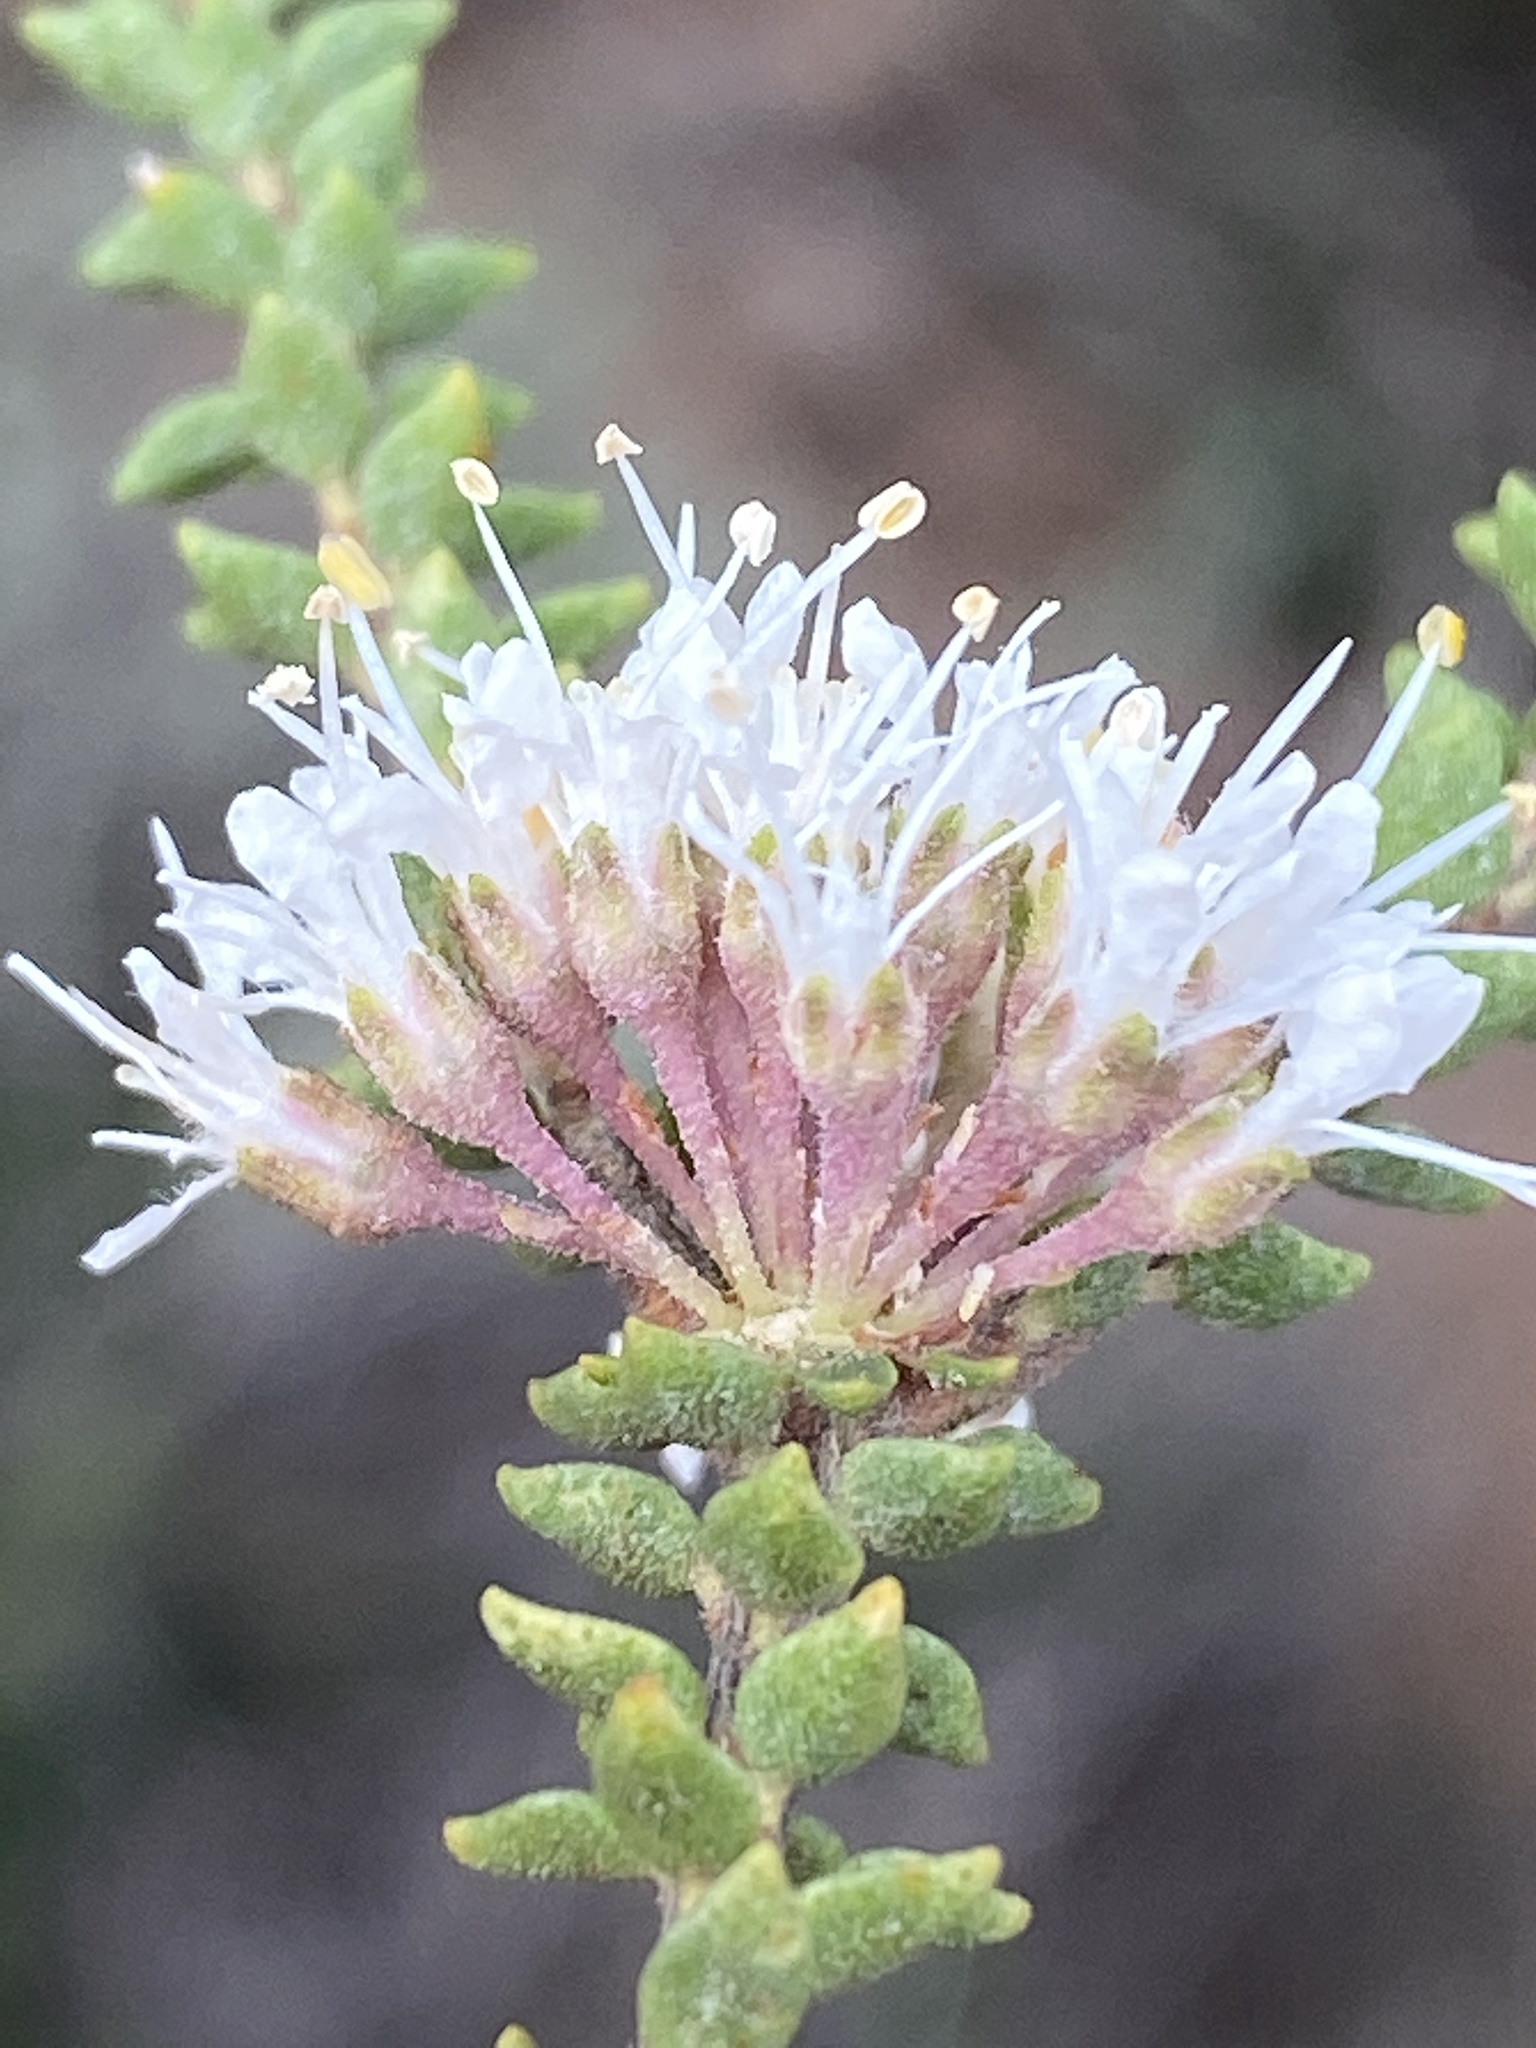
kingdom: Plantae
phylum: Tracheophyta
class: Magnoliopsida
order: Sapindales
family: Rutaceae
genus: Agathosma
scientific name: Agathosma roodebergensis
